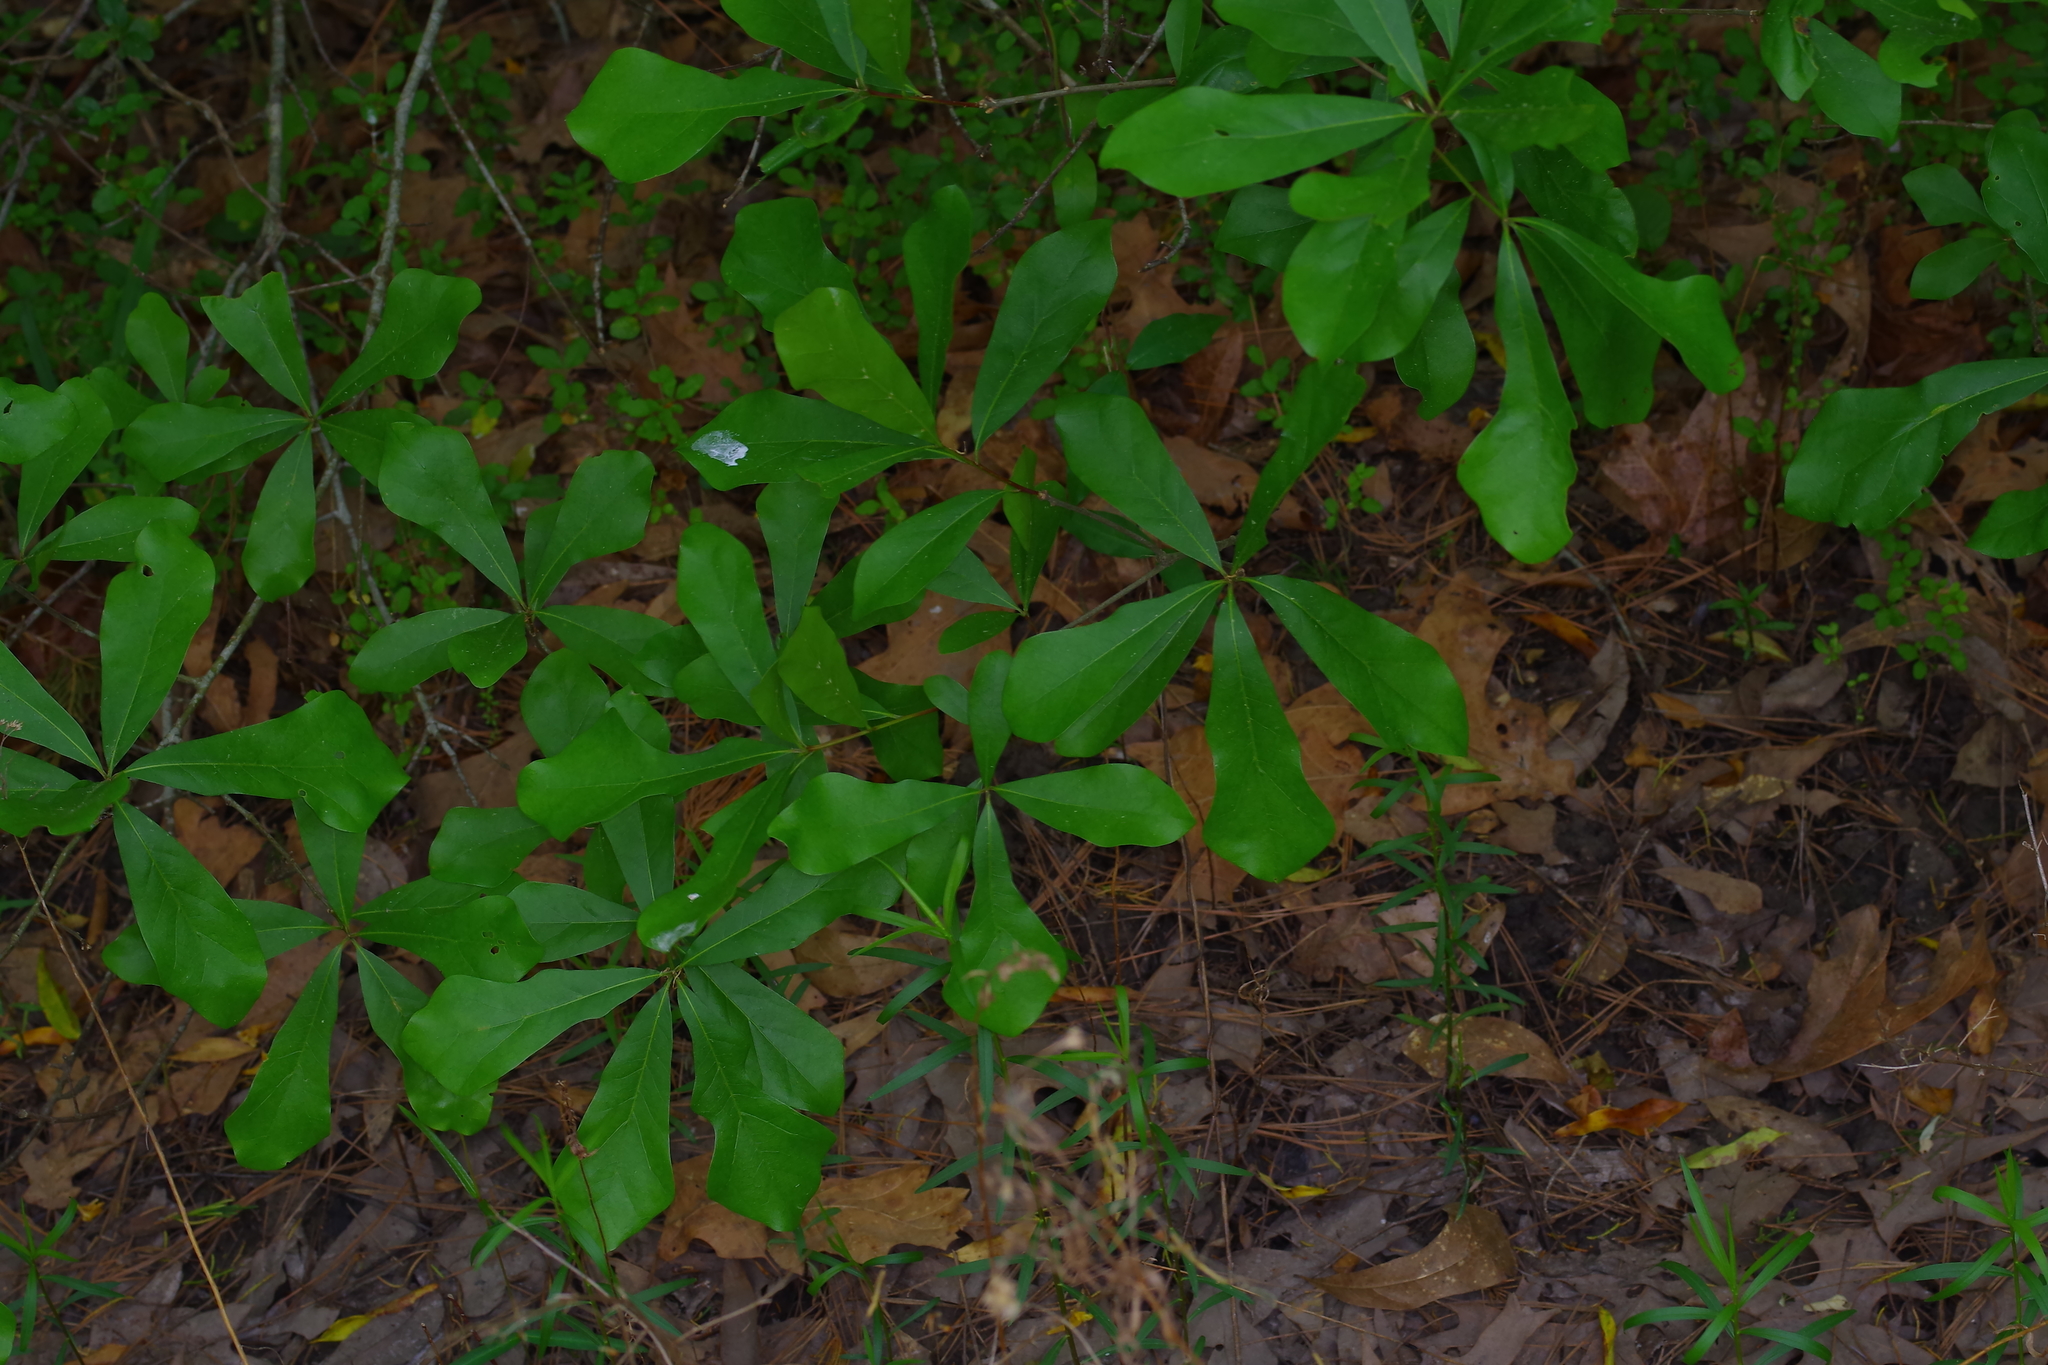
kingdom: Plantae
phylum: Tracheophyta
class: Magnoliopsida
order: Fagales
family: Fagaceae
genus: Quercus
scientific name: Quercus nigra
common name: Water oak
